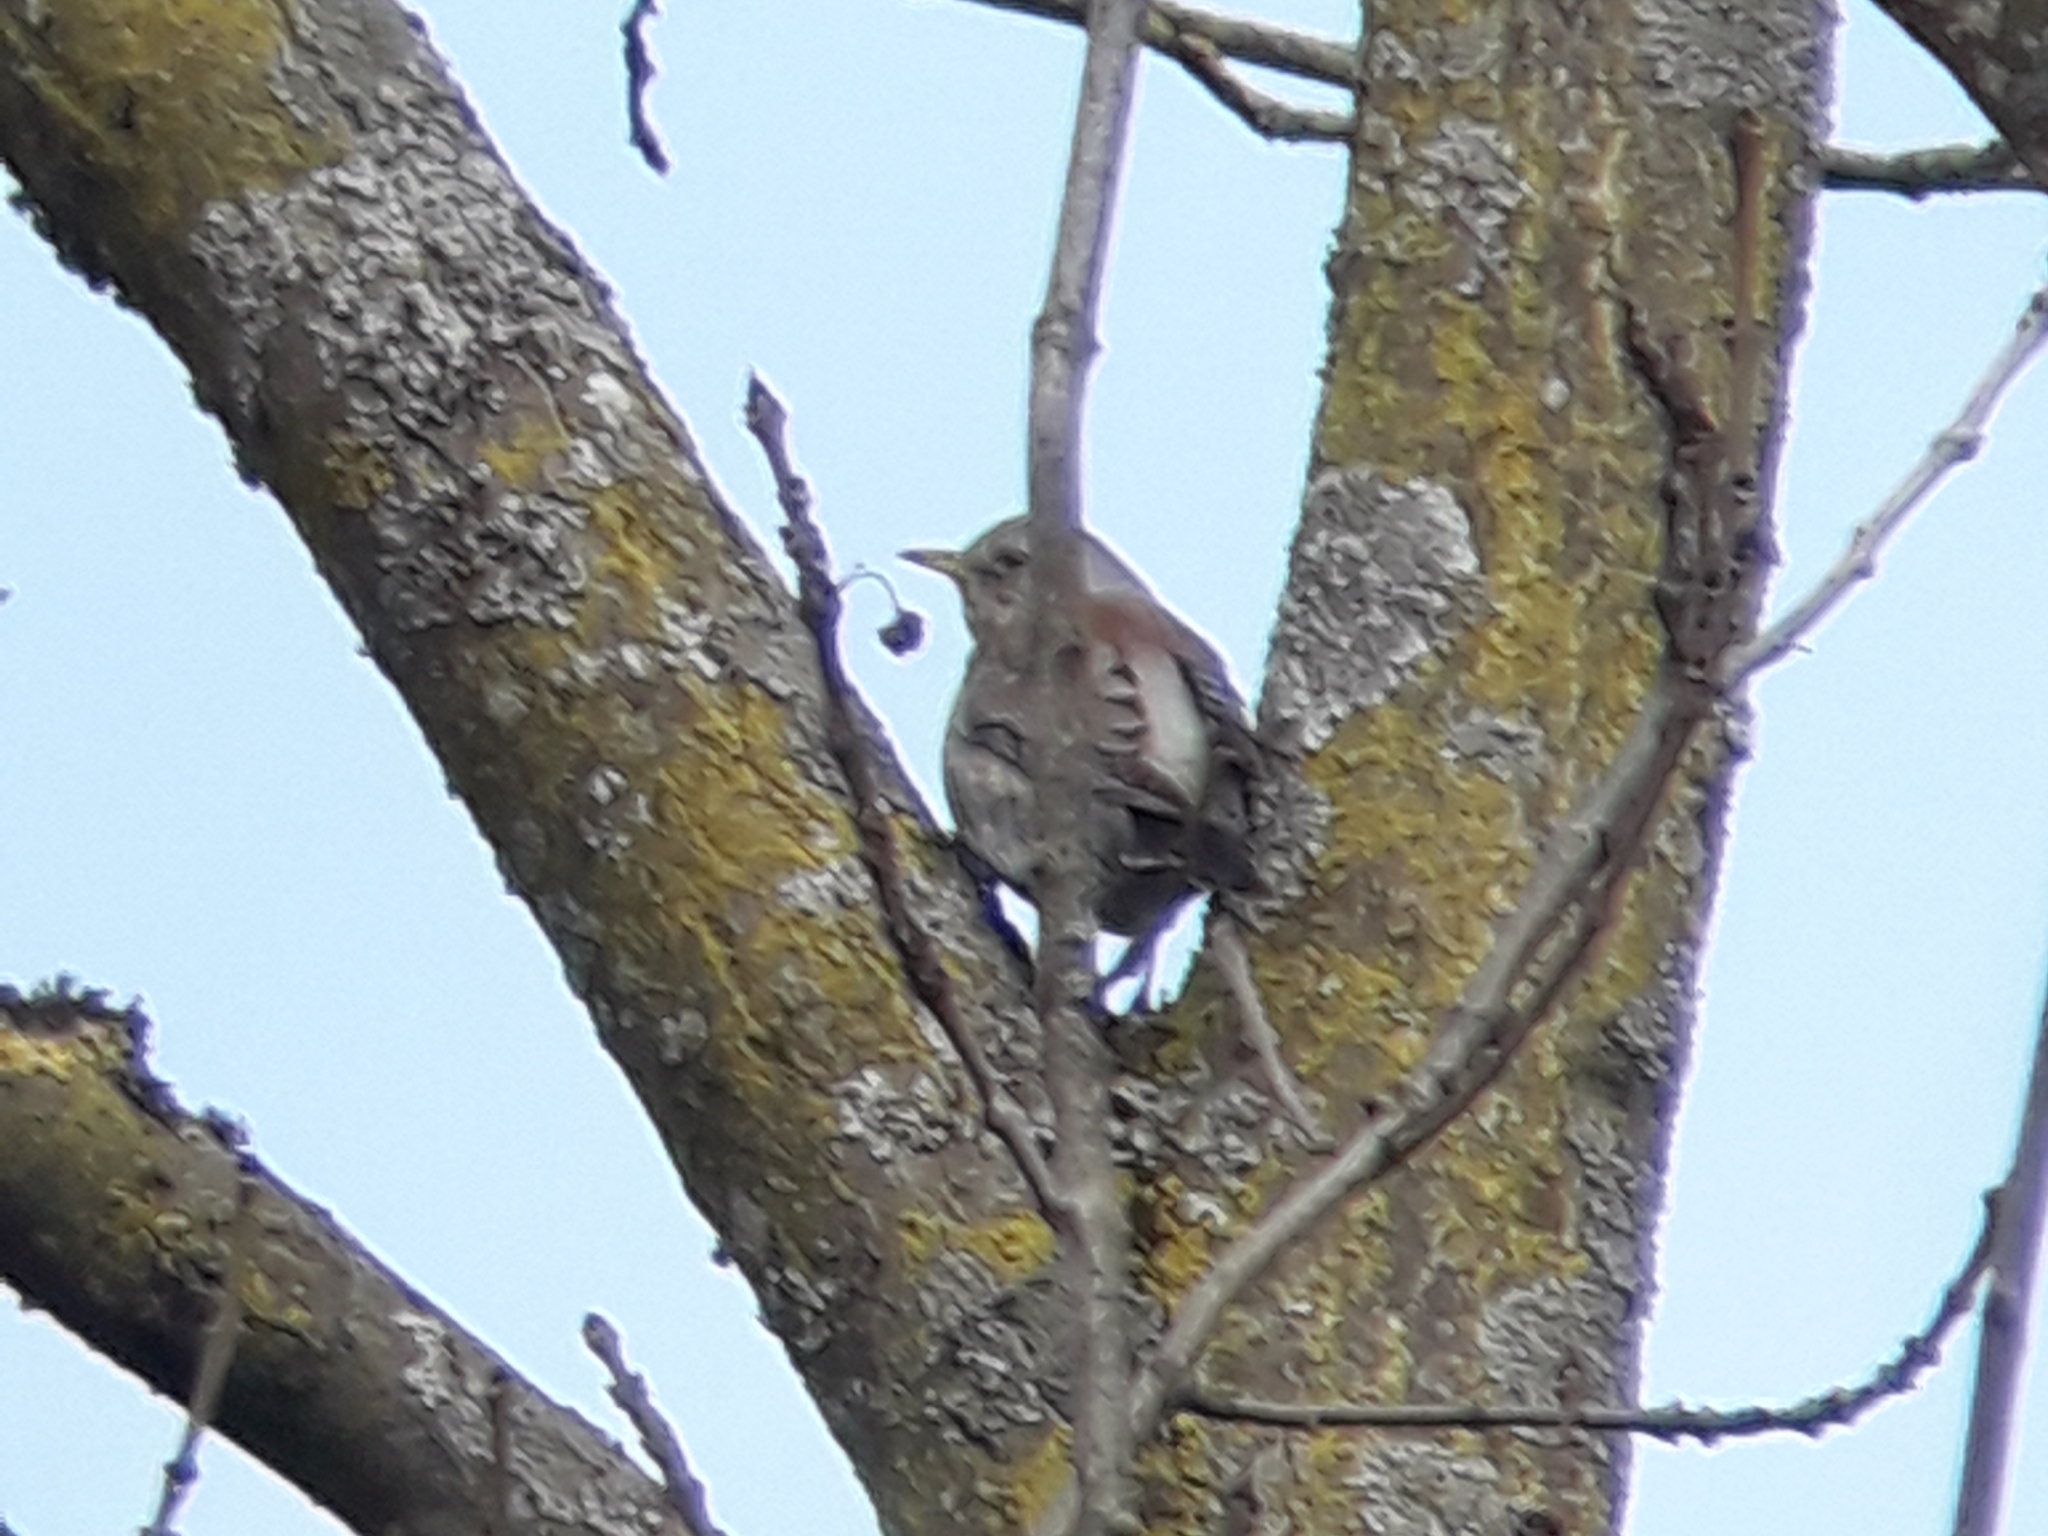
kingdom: Animalia
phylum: Chordata
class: Aves
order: Passeriformes
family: Turdidae
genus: Turdus
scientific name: Turdus pilaris
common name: Fieldfare
